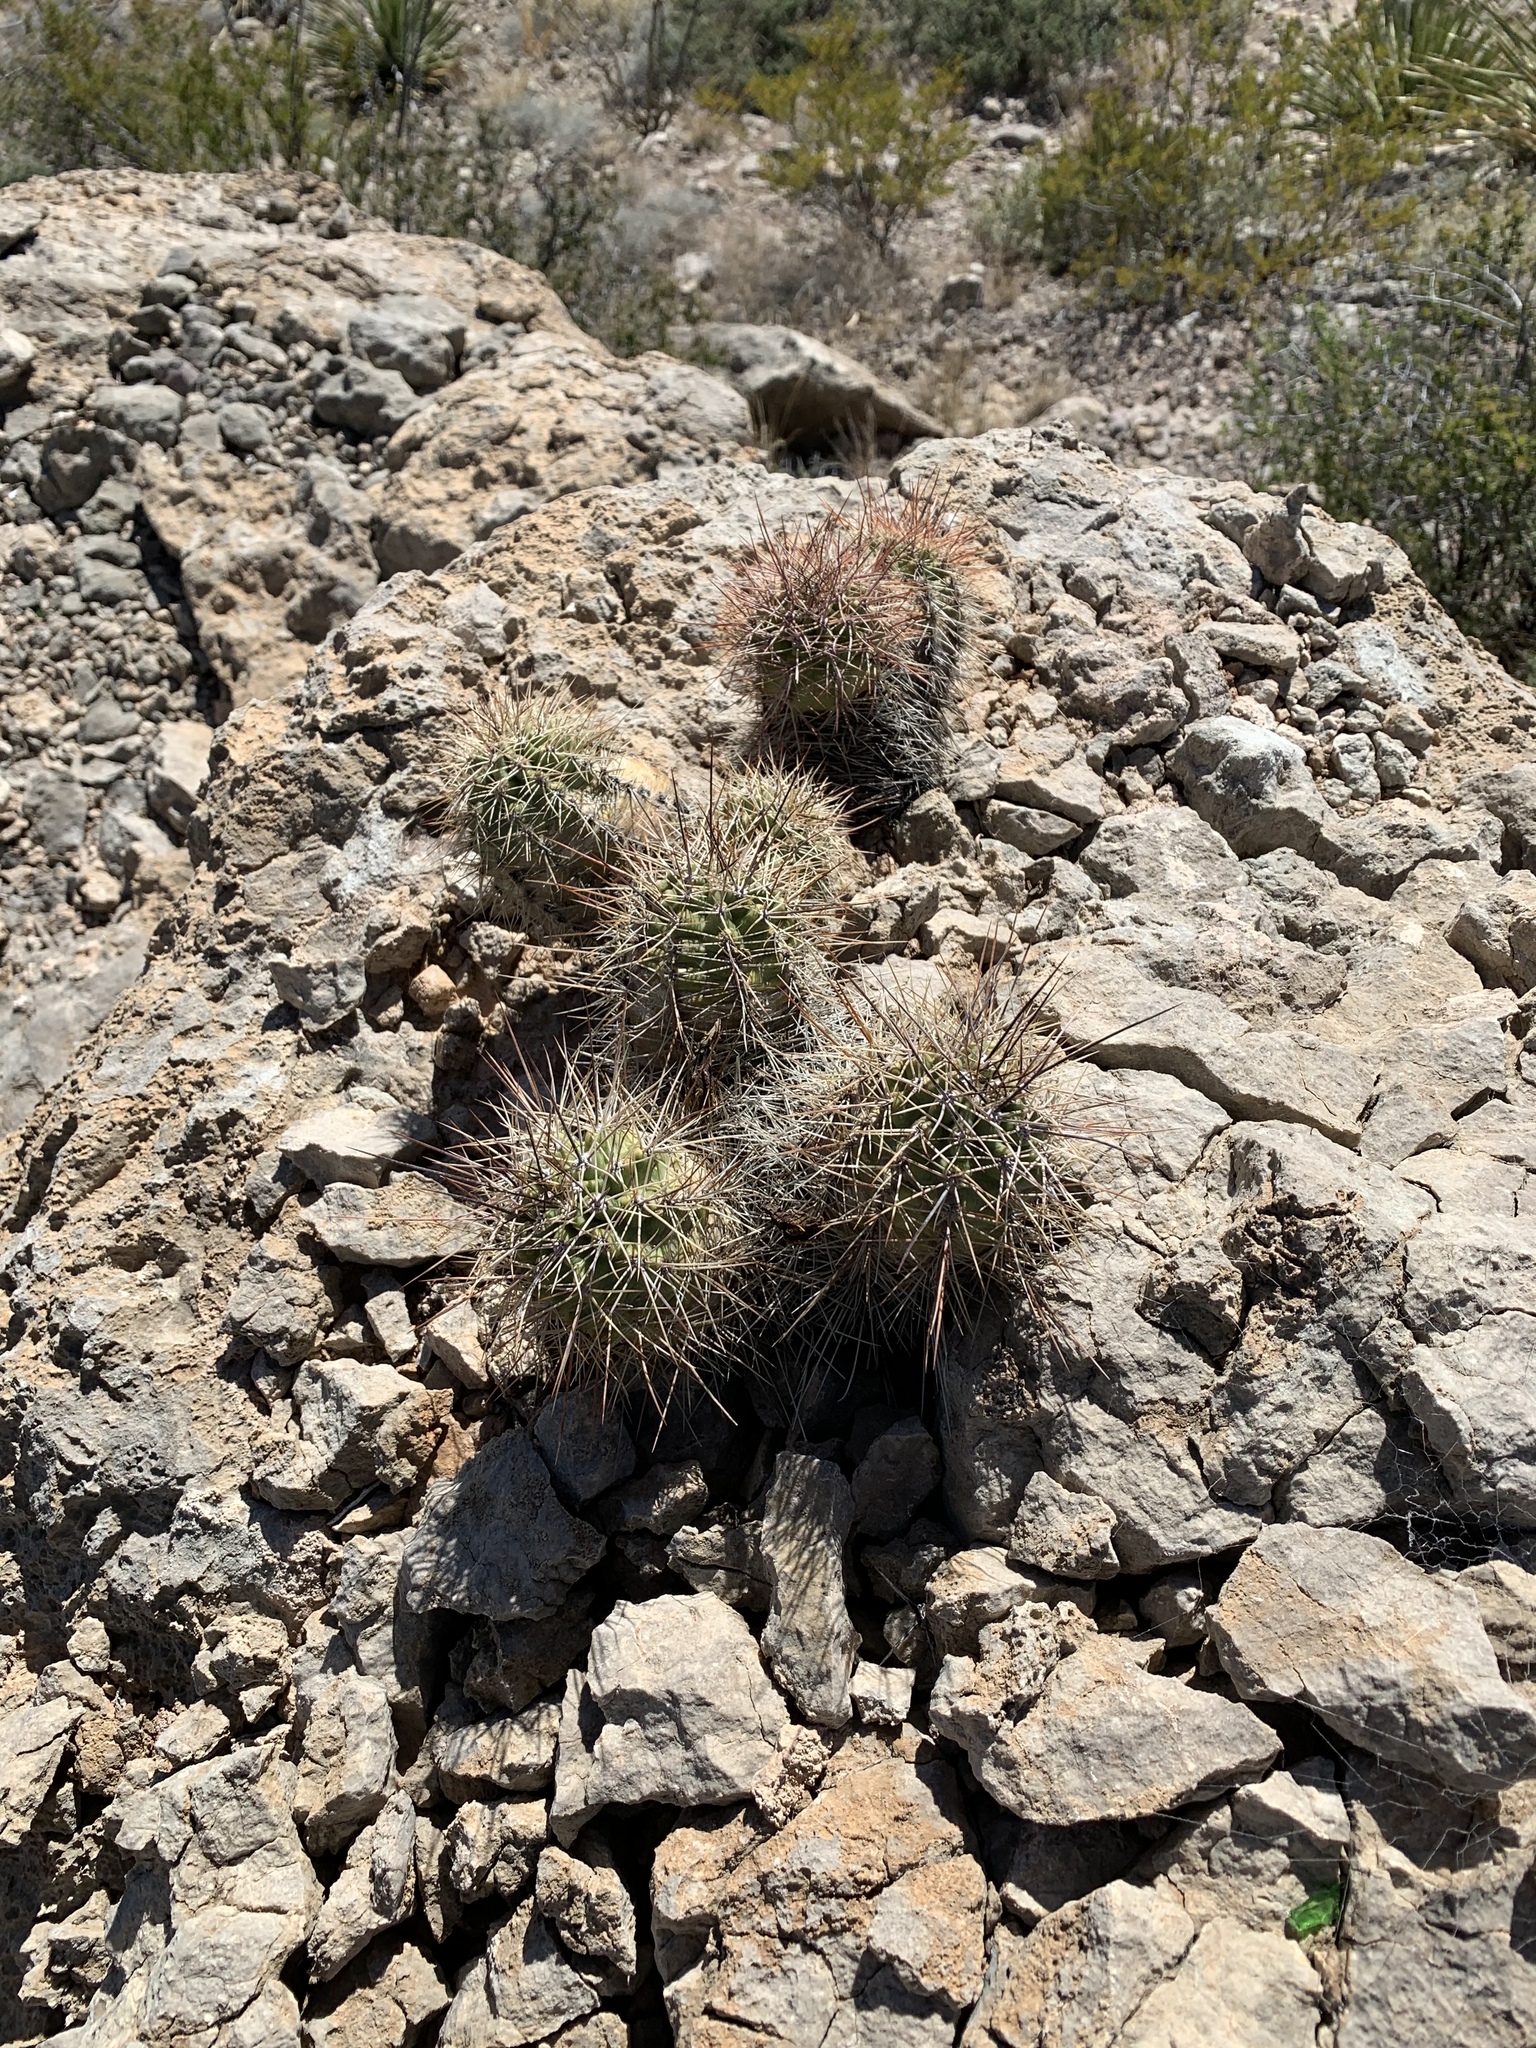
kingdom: Plantae
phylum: Tracheophyta
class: Magnoliopsida
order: Caryophyllales
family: Cactaceae
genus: Echinocereus
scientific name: Echinocereus coccineus
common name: Scarlet hedgehog cactus
